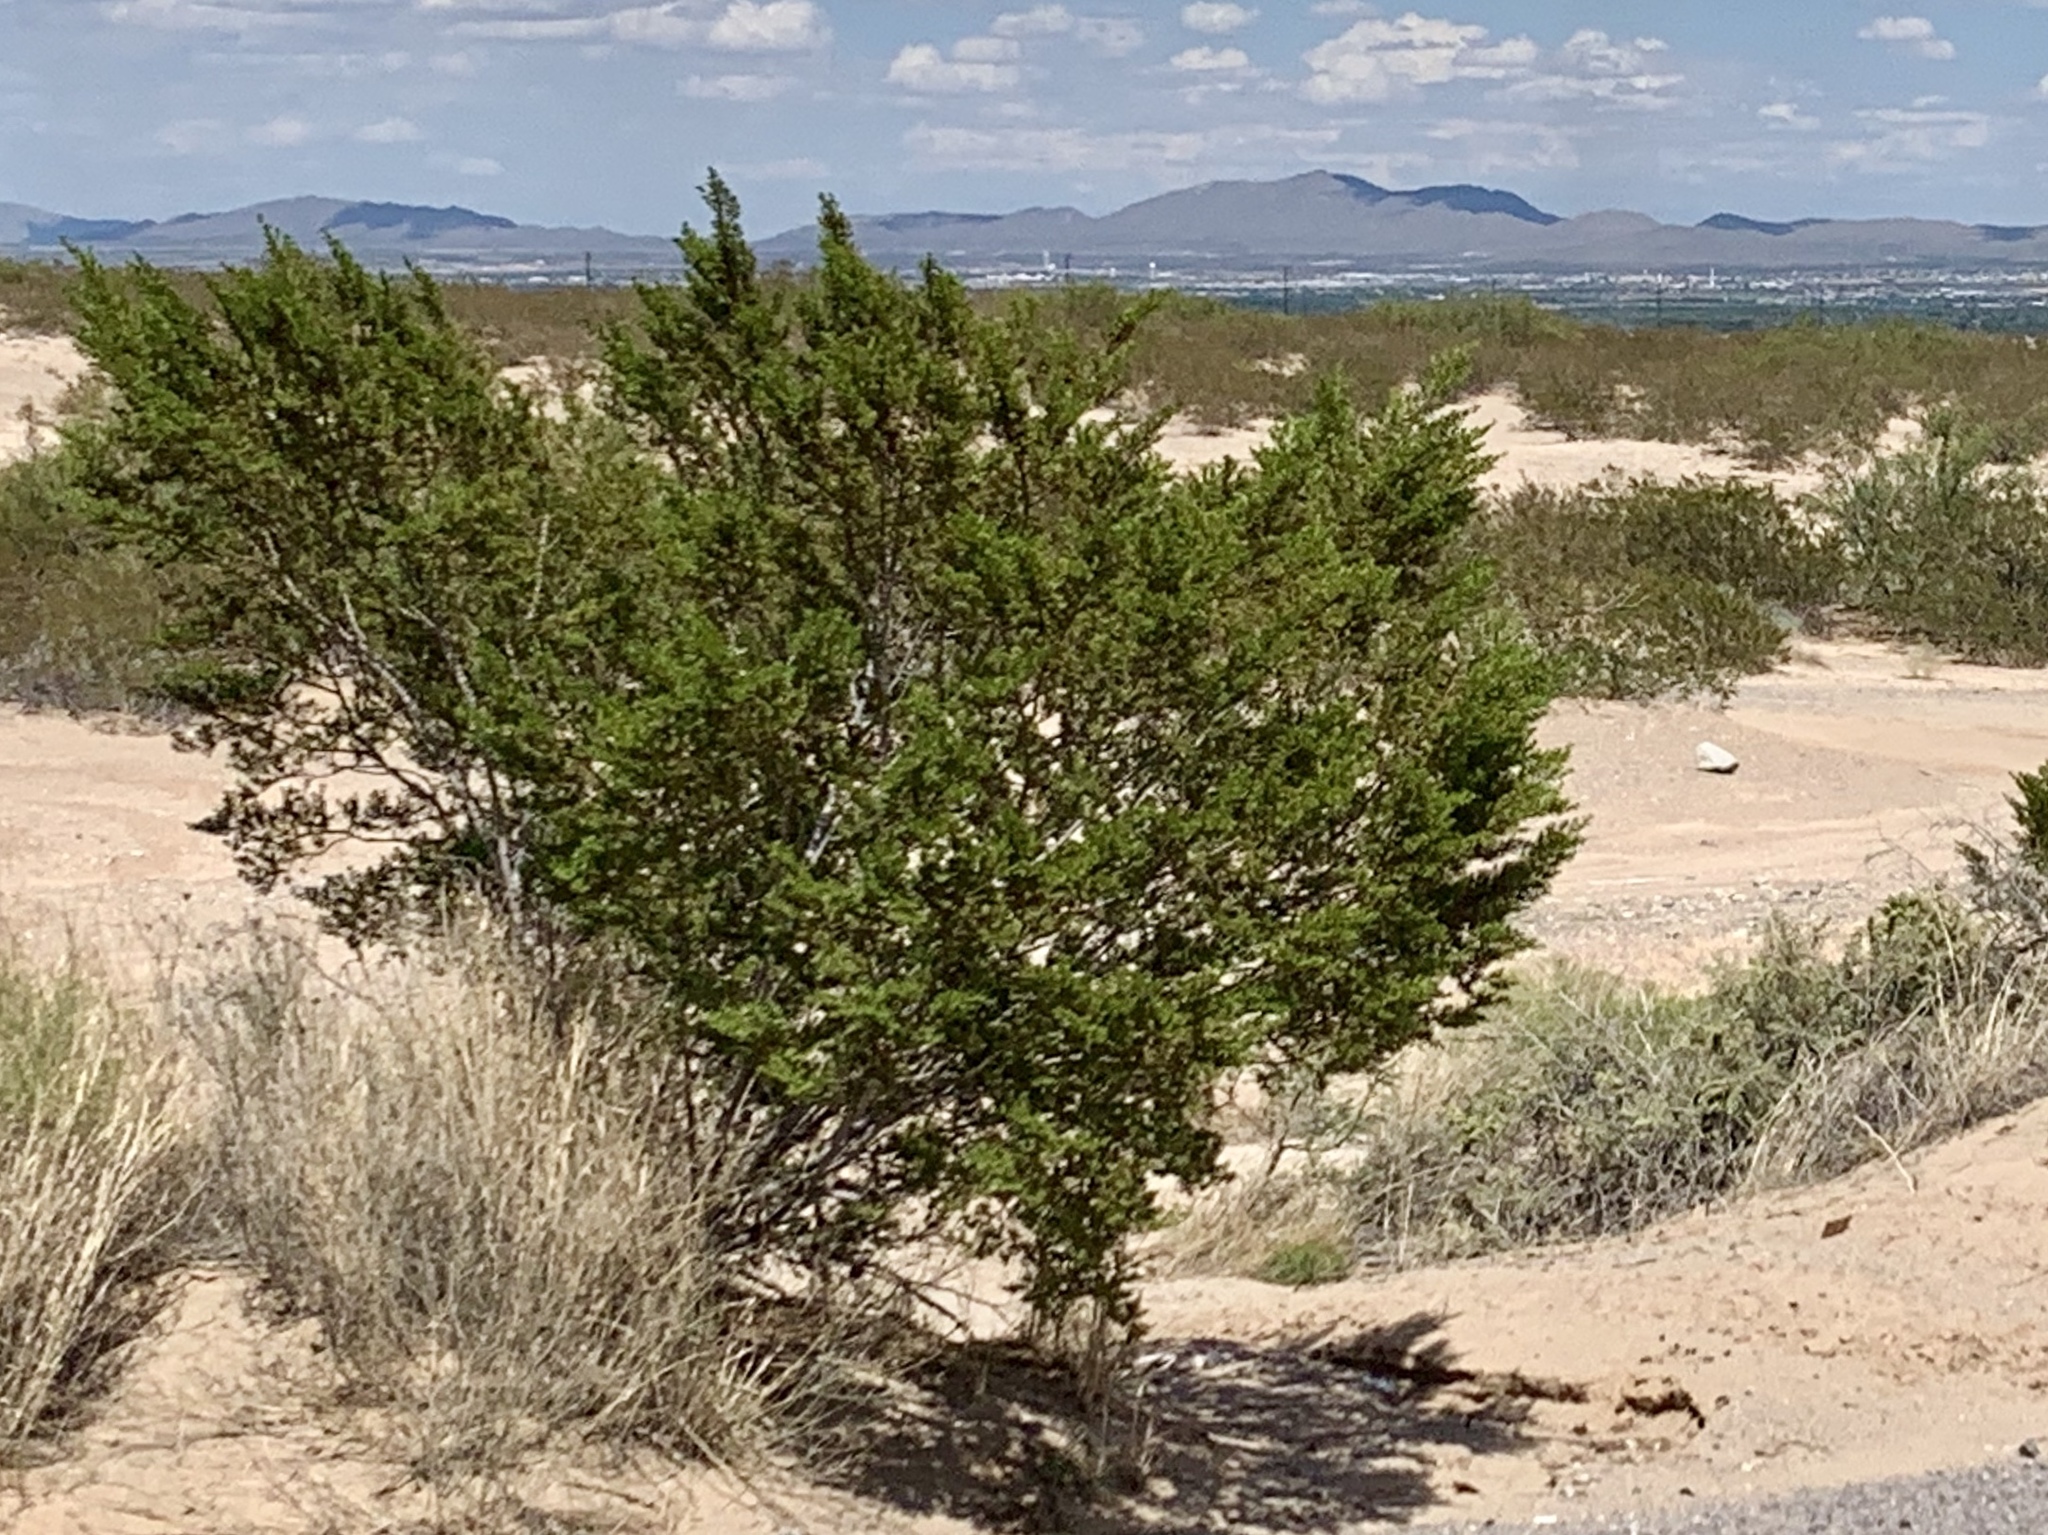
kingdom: Plantae
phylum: Tracheophyta
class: Magnoliopsida
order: Zygophyllales
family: Zygophyllaceae
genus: Larrea
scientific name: Larrea tridentata
